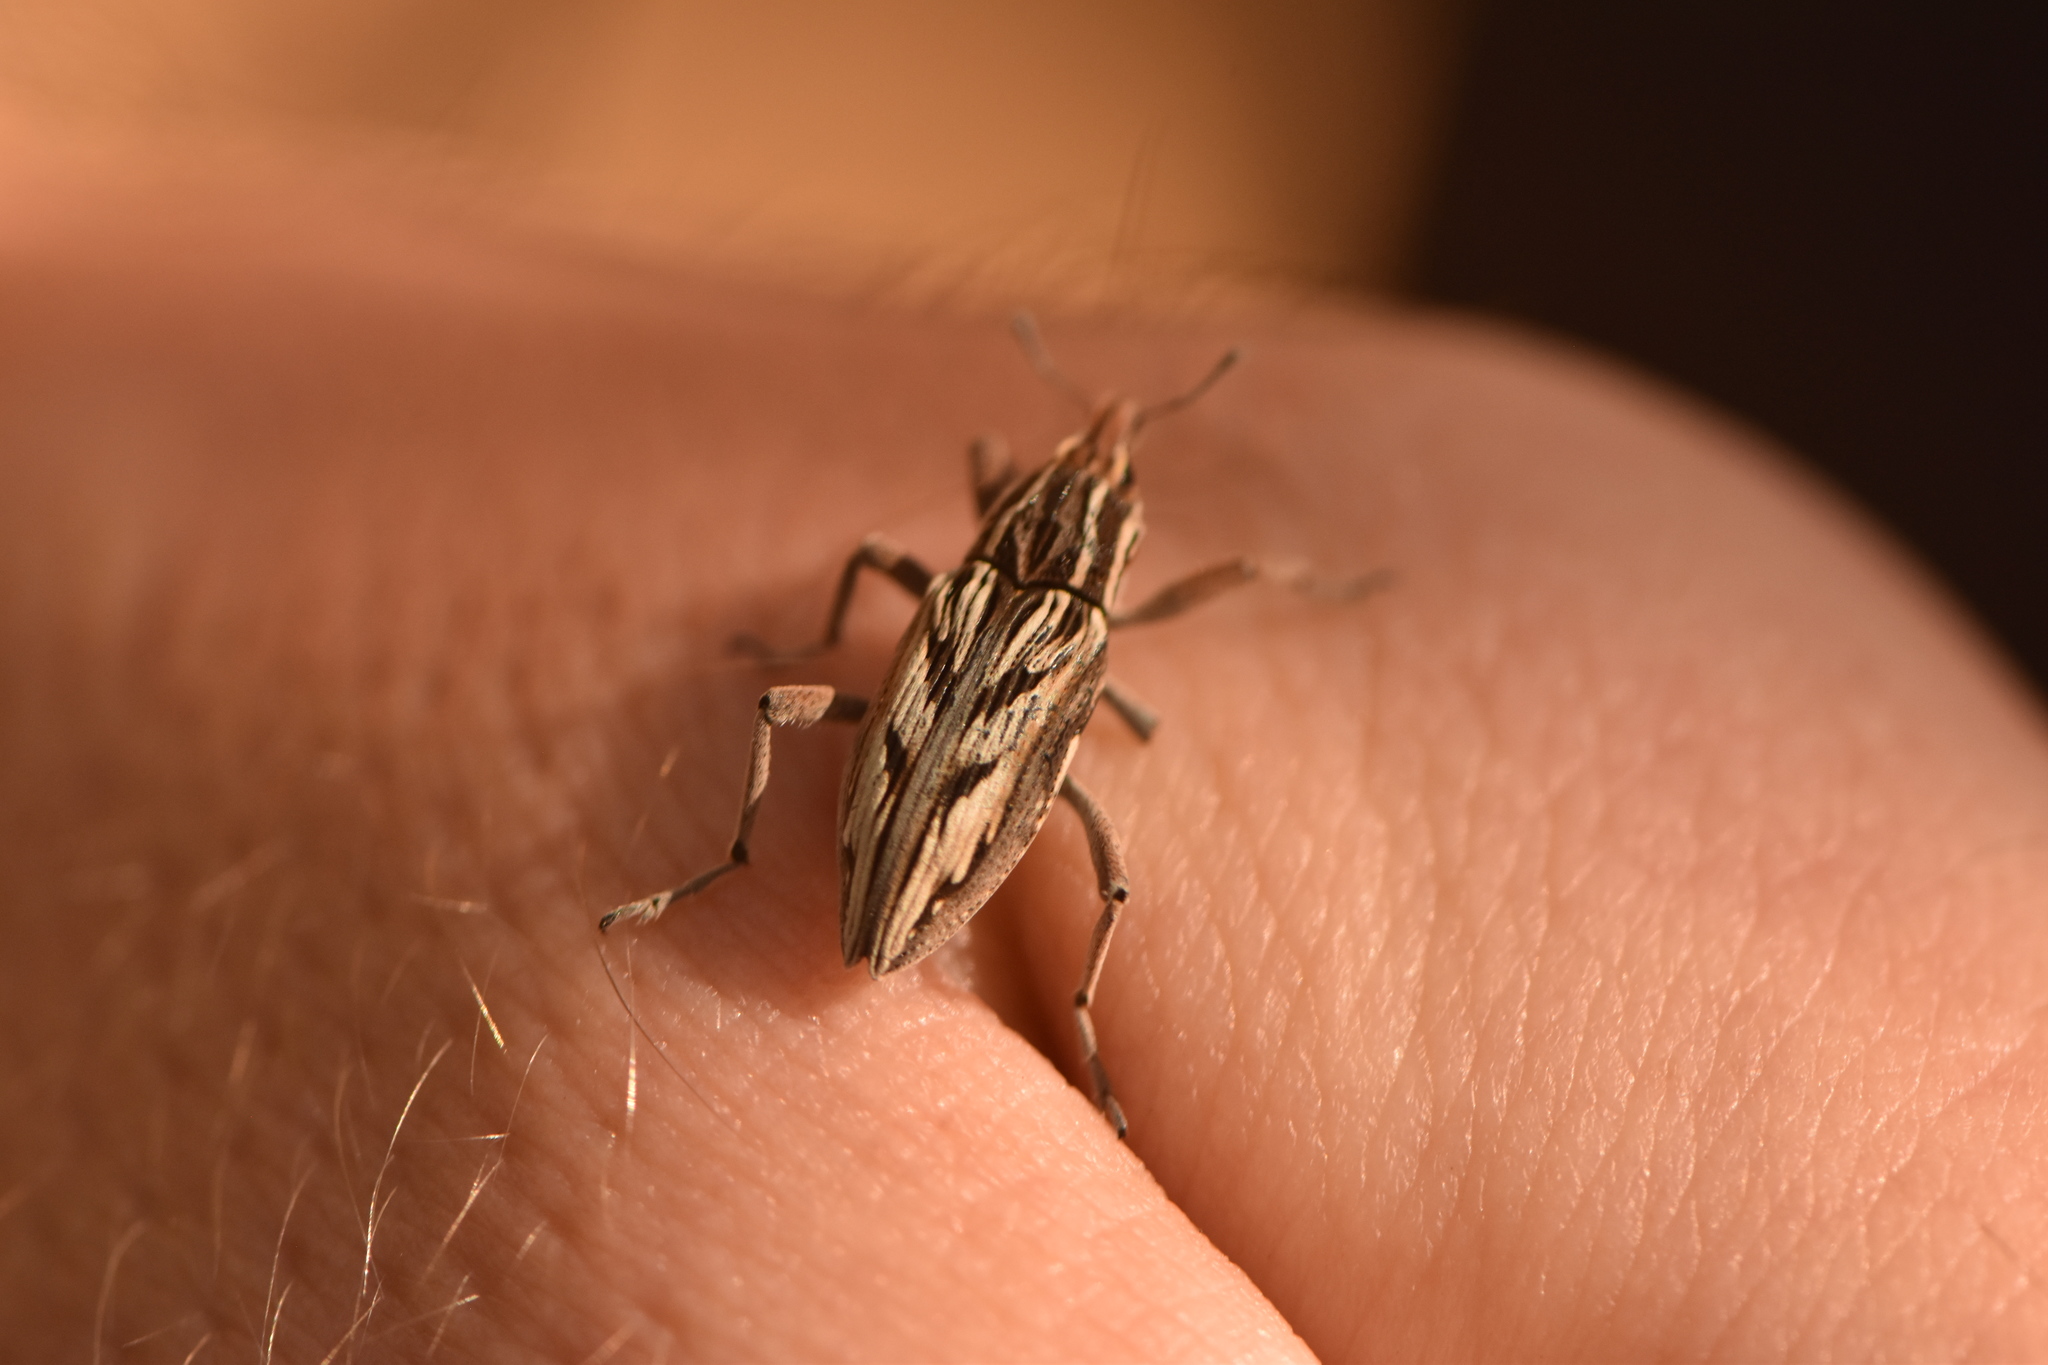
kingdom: Animalia
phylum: Arthropoda
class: Insecta
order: Coleoptera
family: Curculionidae
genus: Coniocleonus
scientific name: Coniocleonus nigrosuturatus
